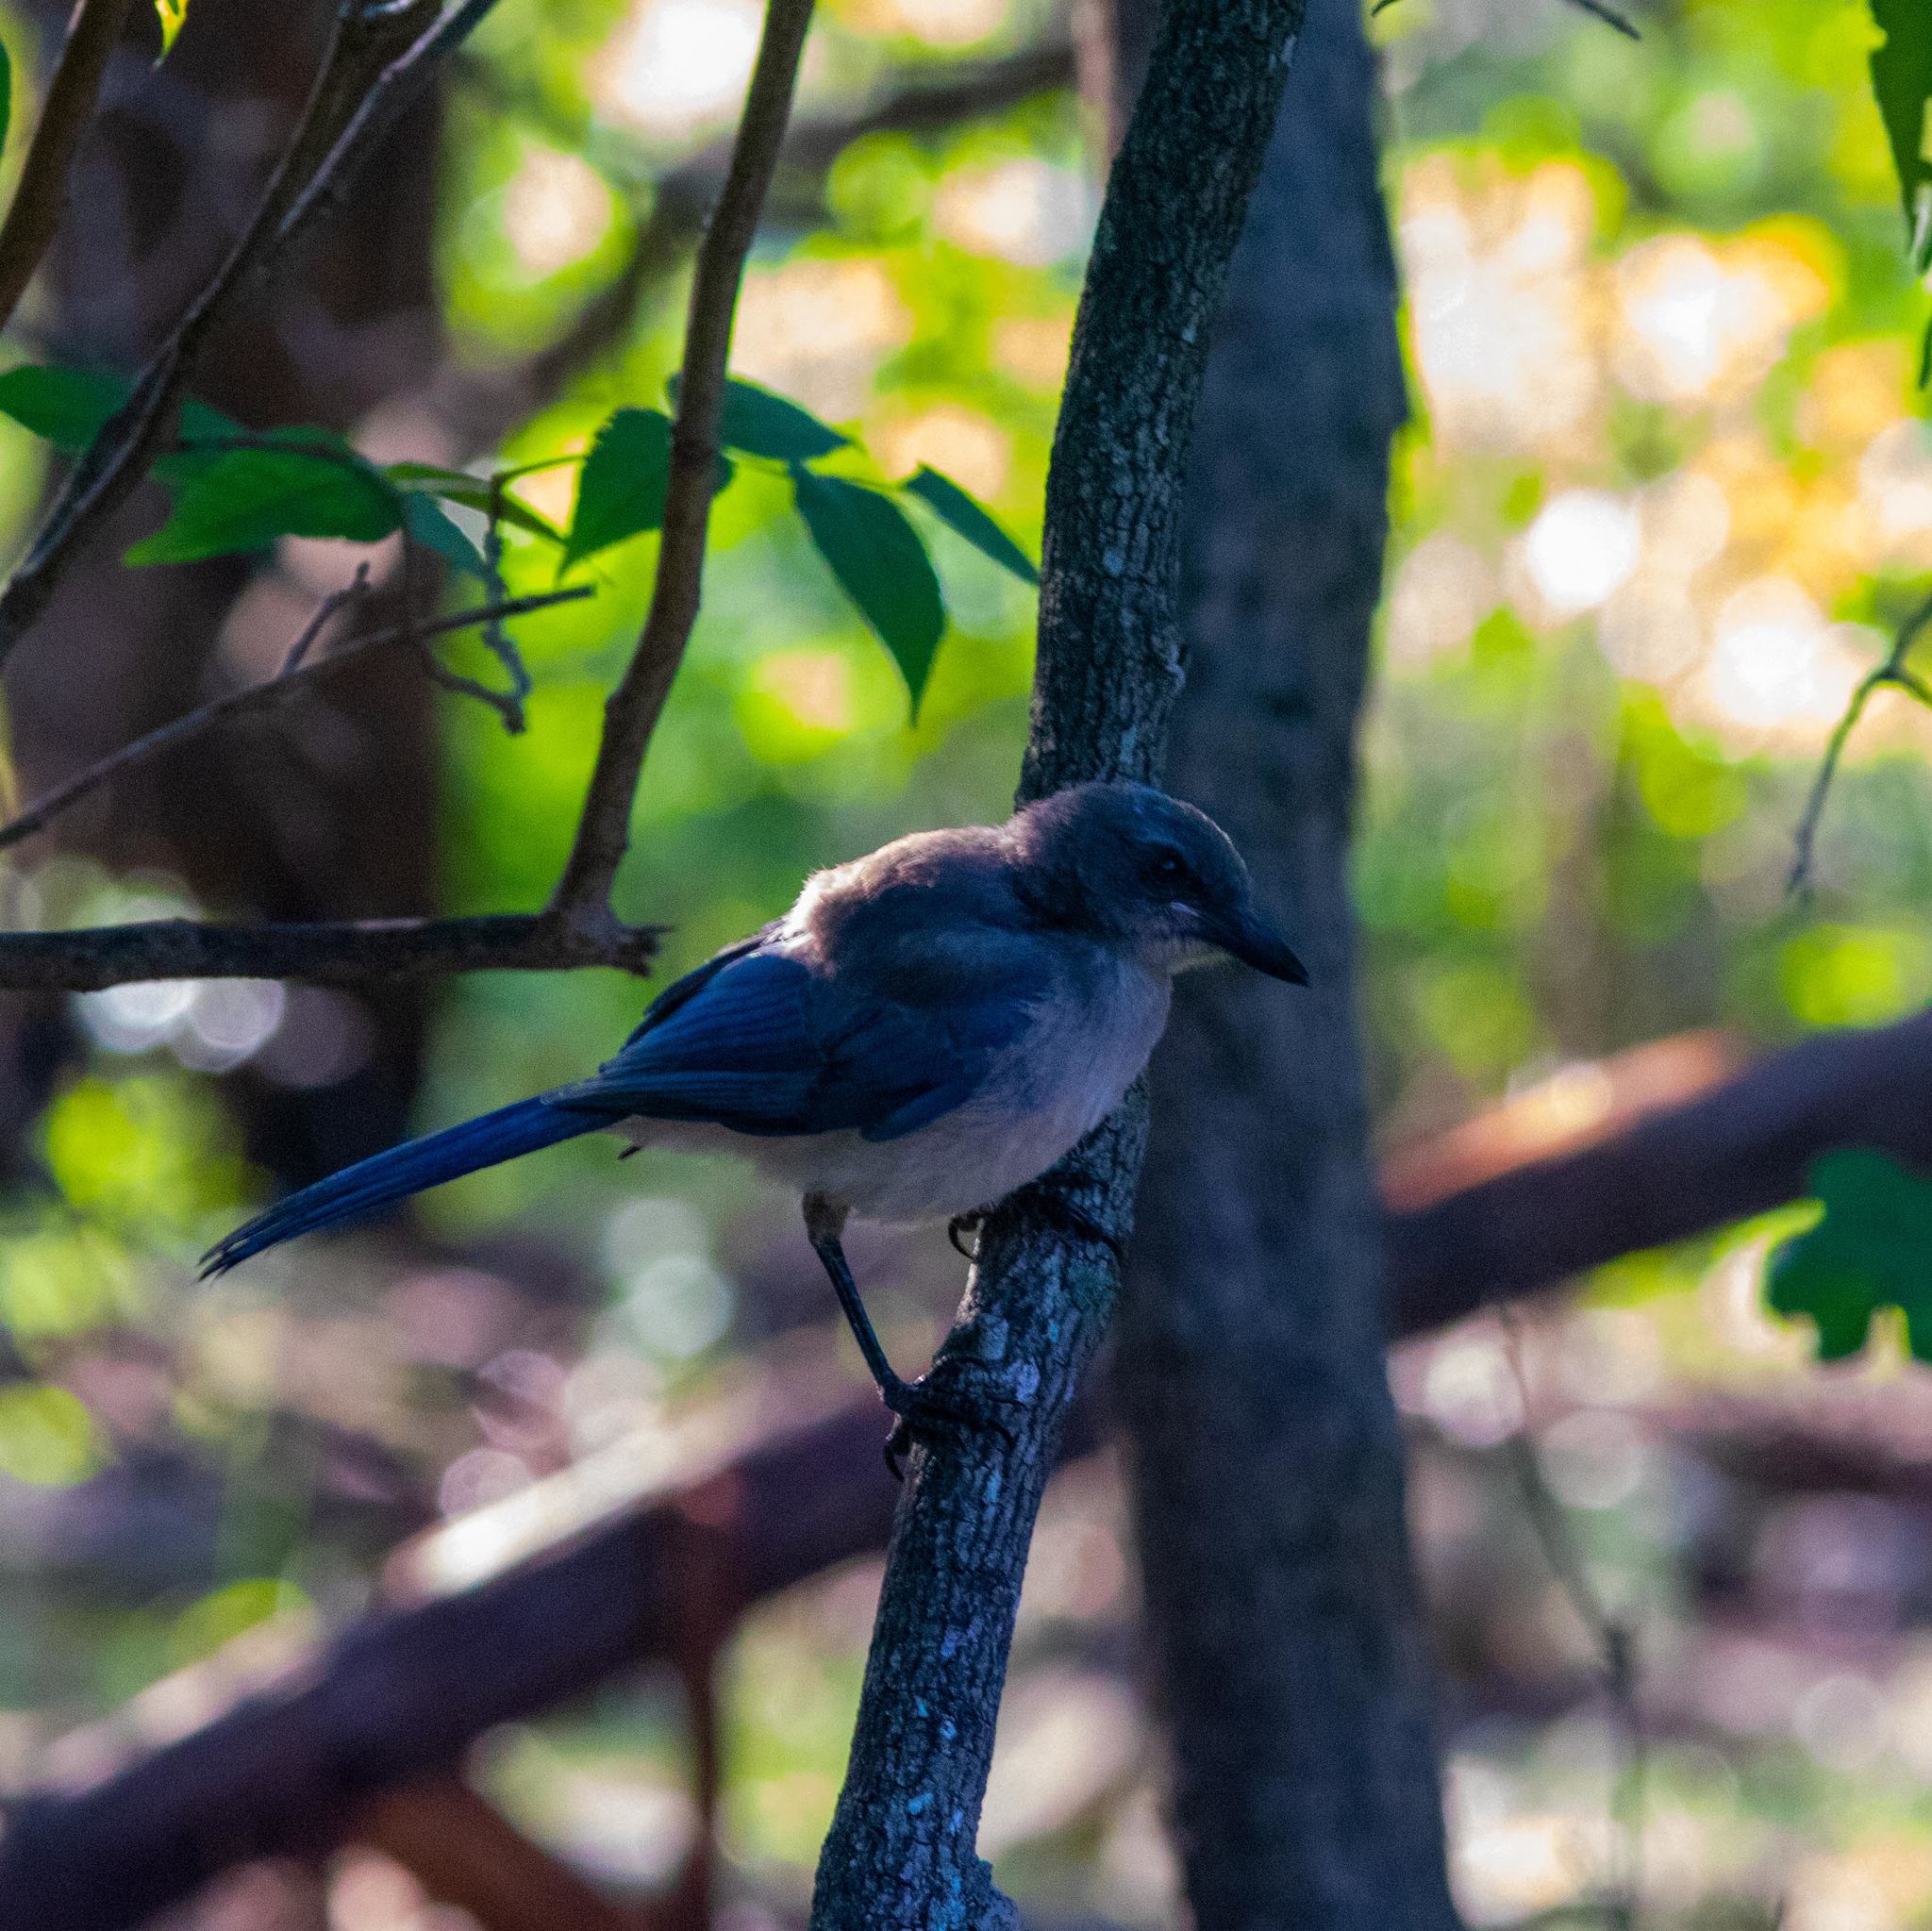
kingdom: Animalia
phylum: Chordata
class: Aves
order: Passeriformes
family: Corvidae
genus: Aphelocoma
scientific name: Aphelocoma woodhouseii
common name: Woodhouse's scrub-jay
